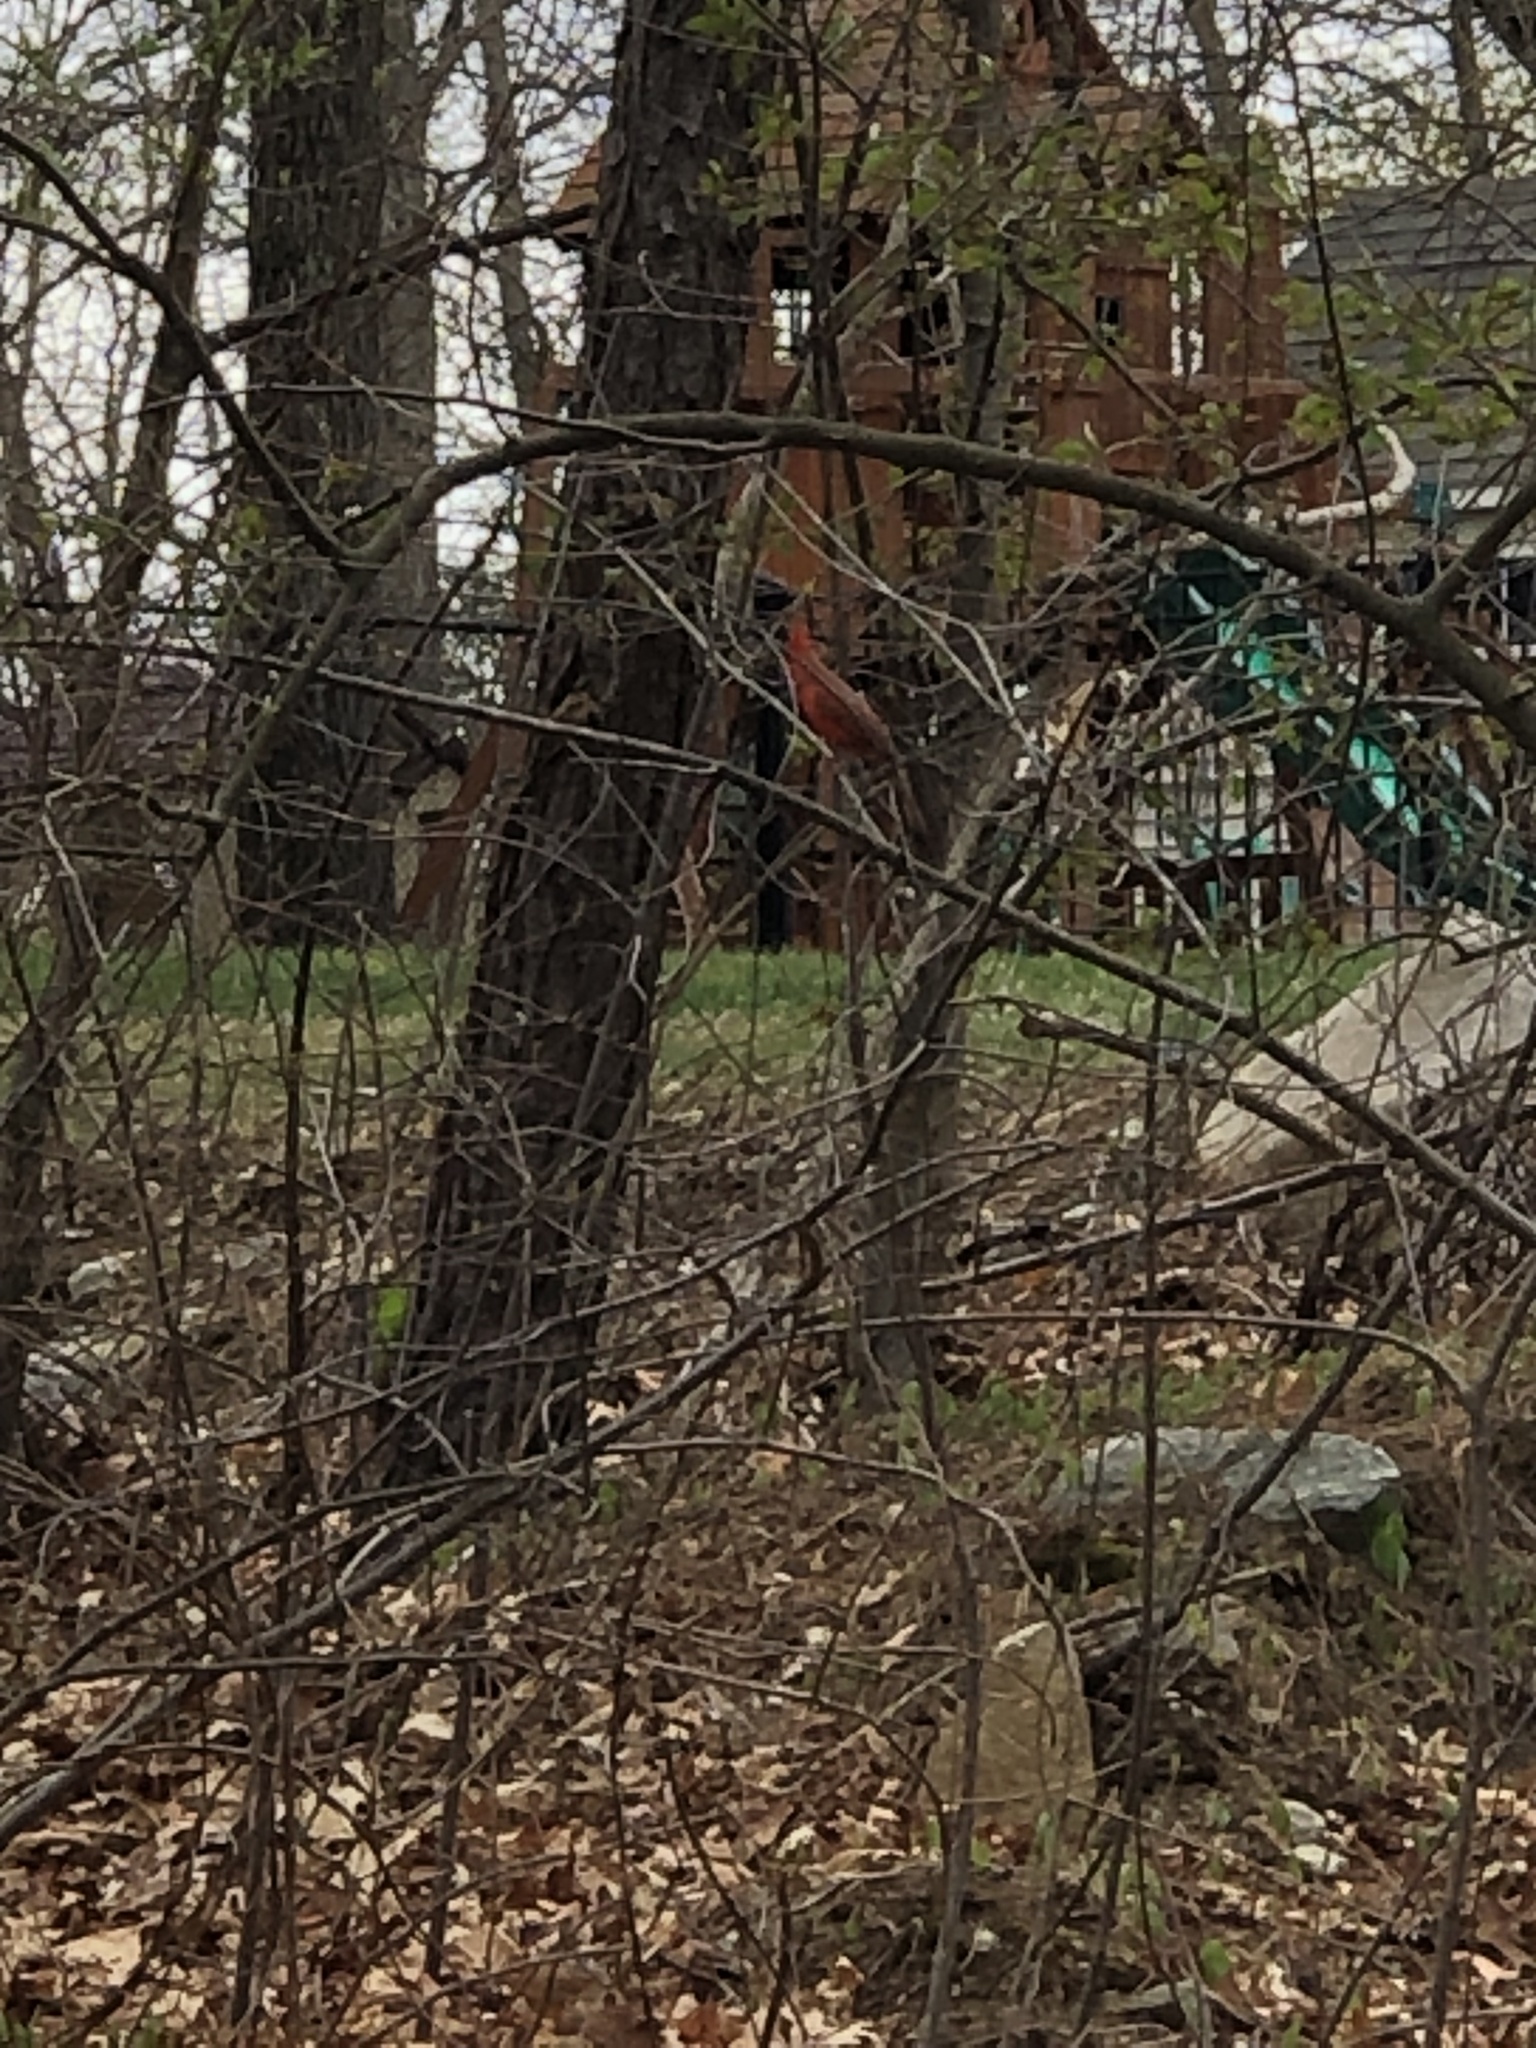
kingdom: Animalia
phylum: Chordata
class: Aves
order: Passeriformes
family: Cardinalidae
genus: Cardinalis
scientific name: Cardinalis cardinalis
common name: Northern cardinal
